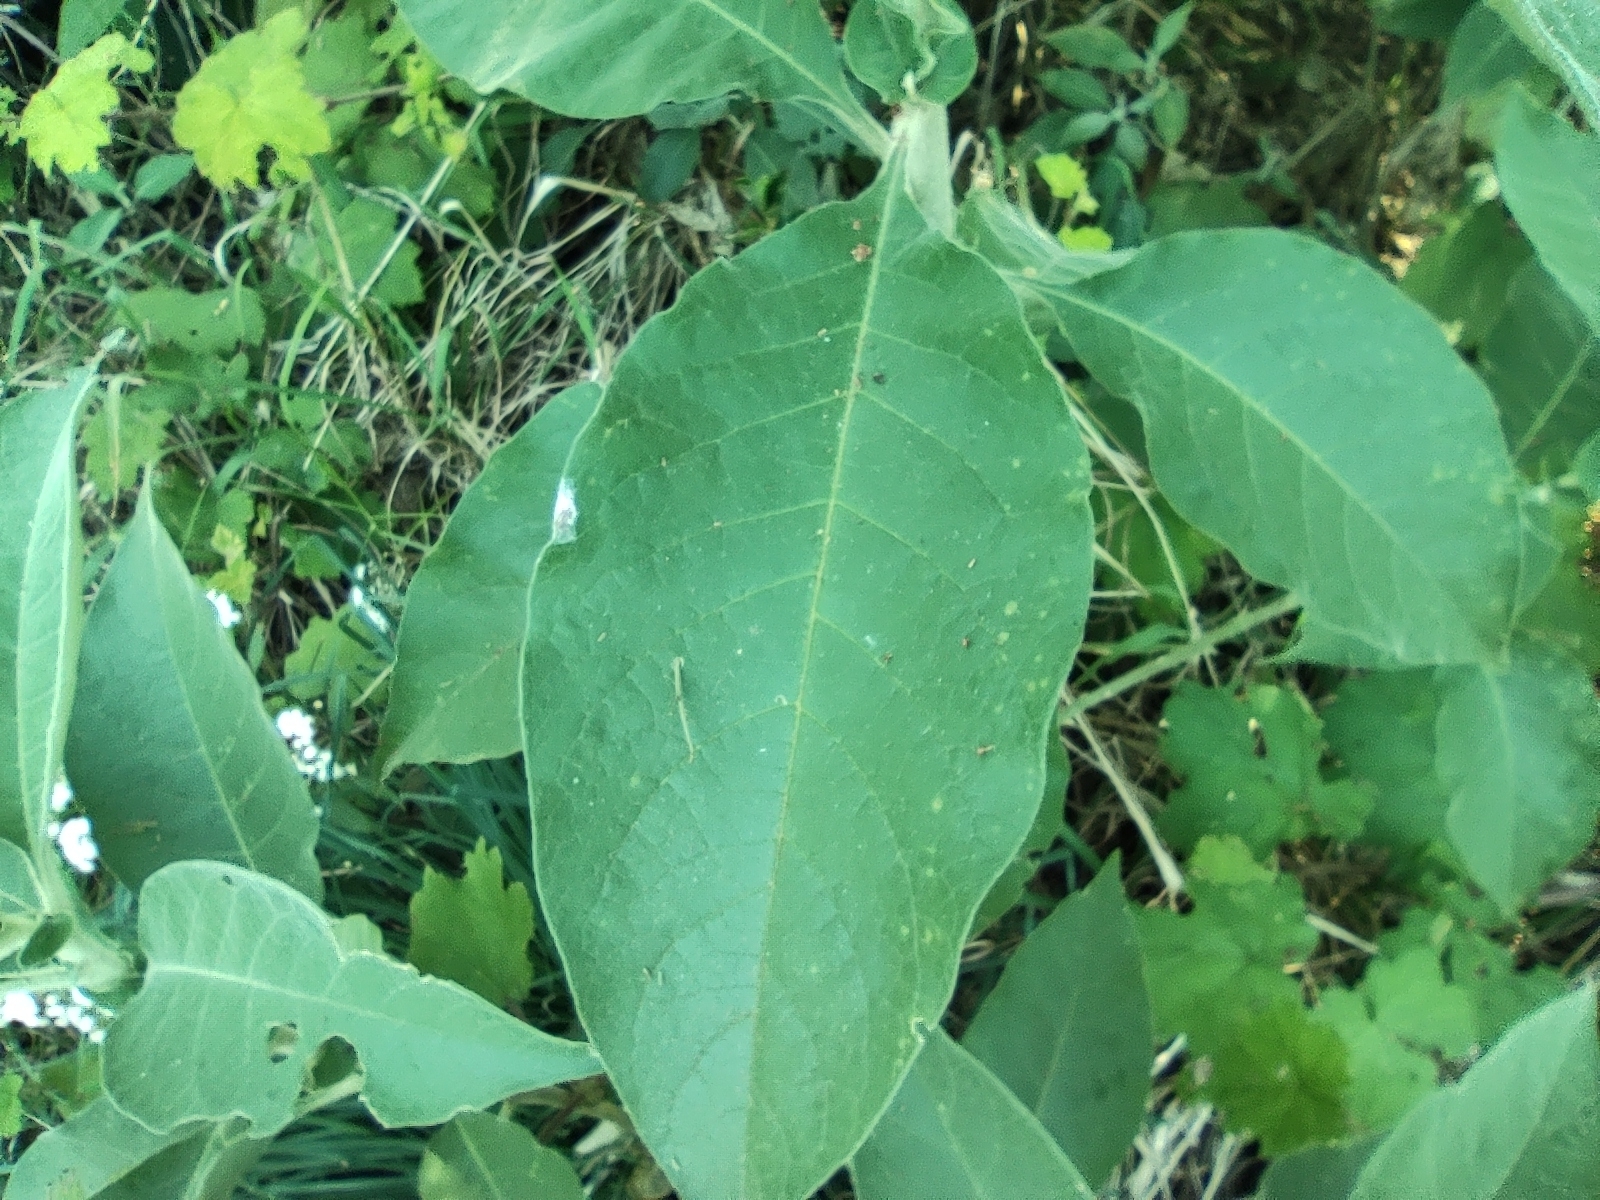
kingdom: Plantae
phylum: Tracheophyta
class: Magnoliopsida
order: Solanales
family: Solanaceae
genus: Solanum
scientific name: Solanum mauritianum
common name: Earleaf nightshade
